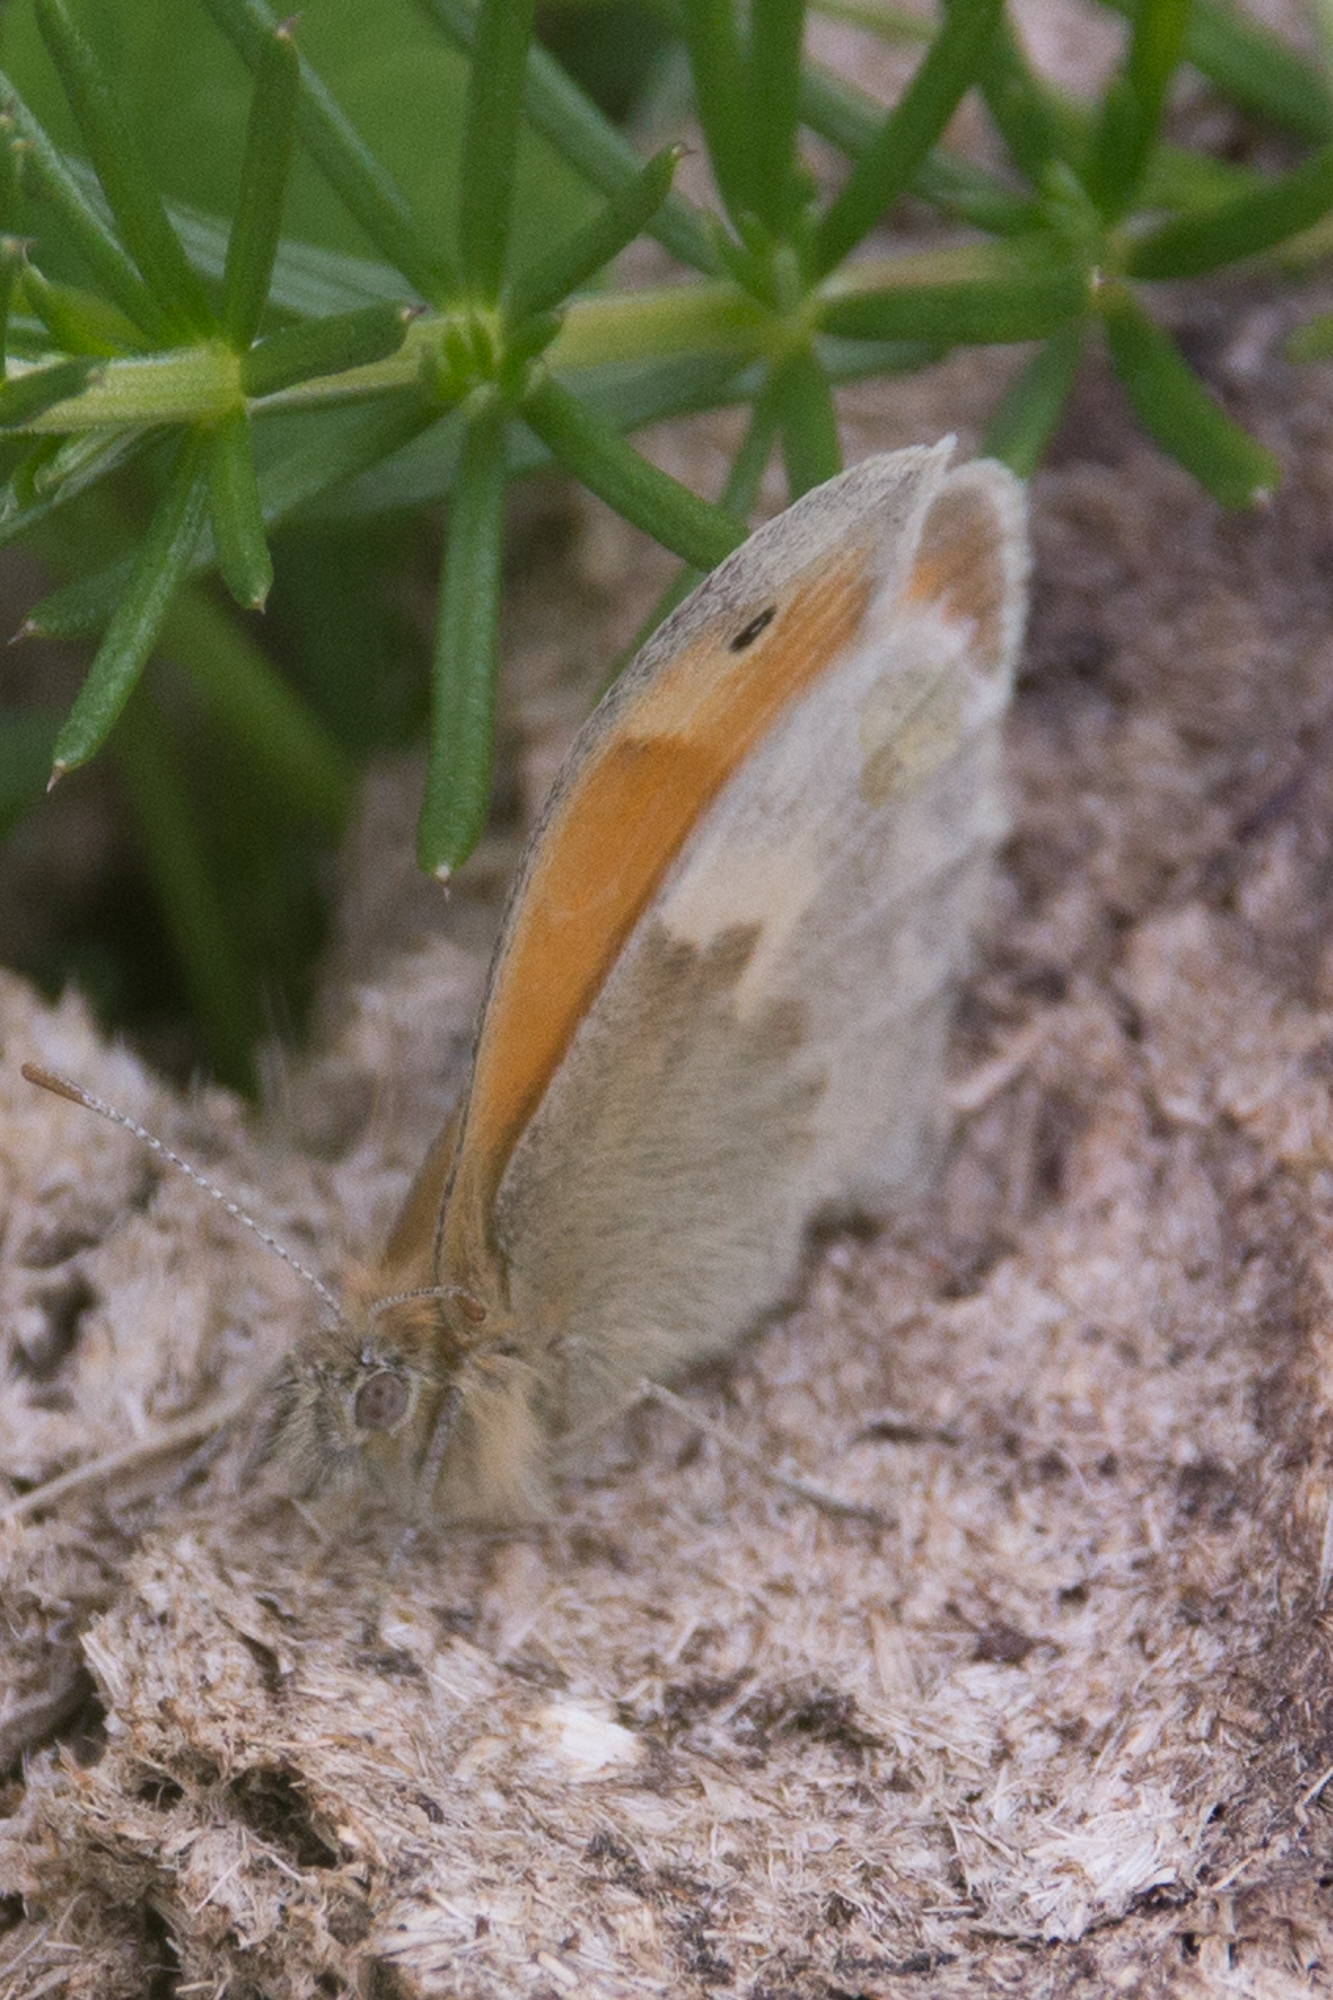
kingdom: Animalia
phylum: Arthropoda
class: Insecta
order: Lepidoptera
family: Nymphalidae
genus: Coenonympha
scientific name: Coenonympha pamphilus
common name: Small heath
